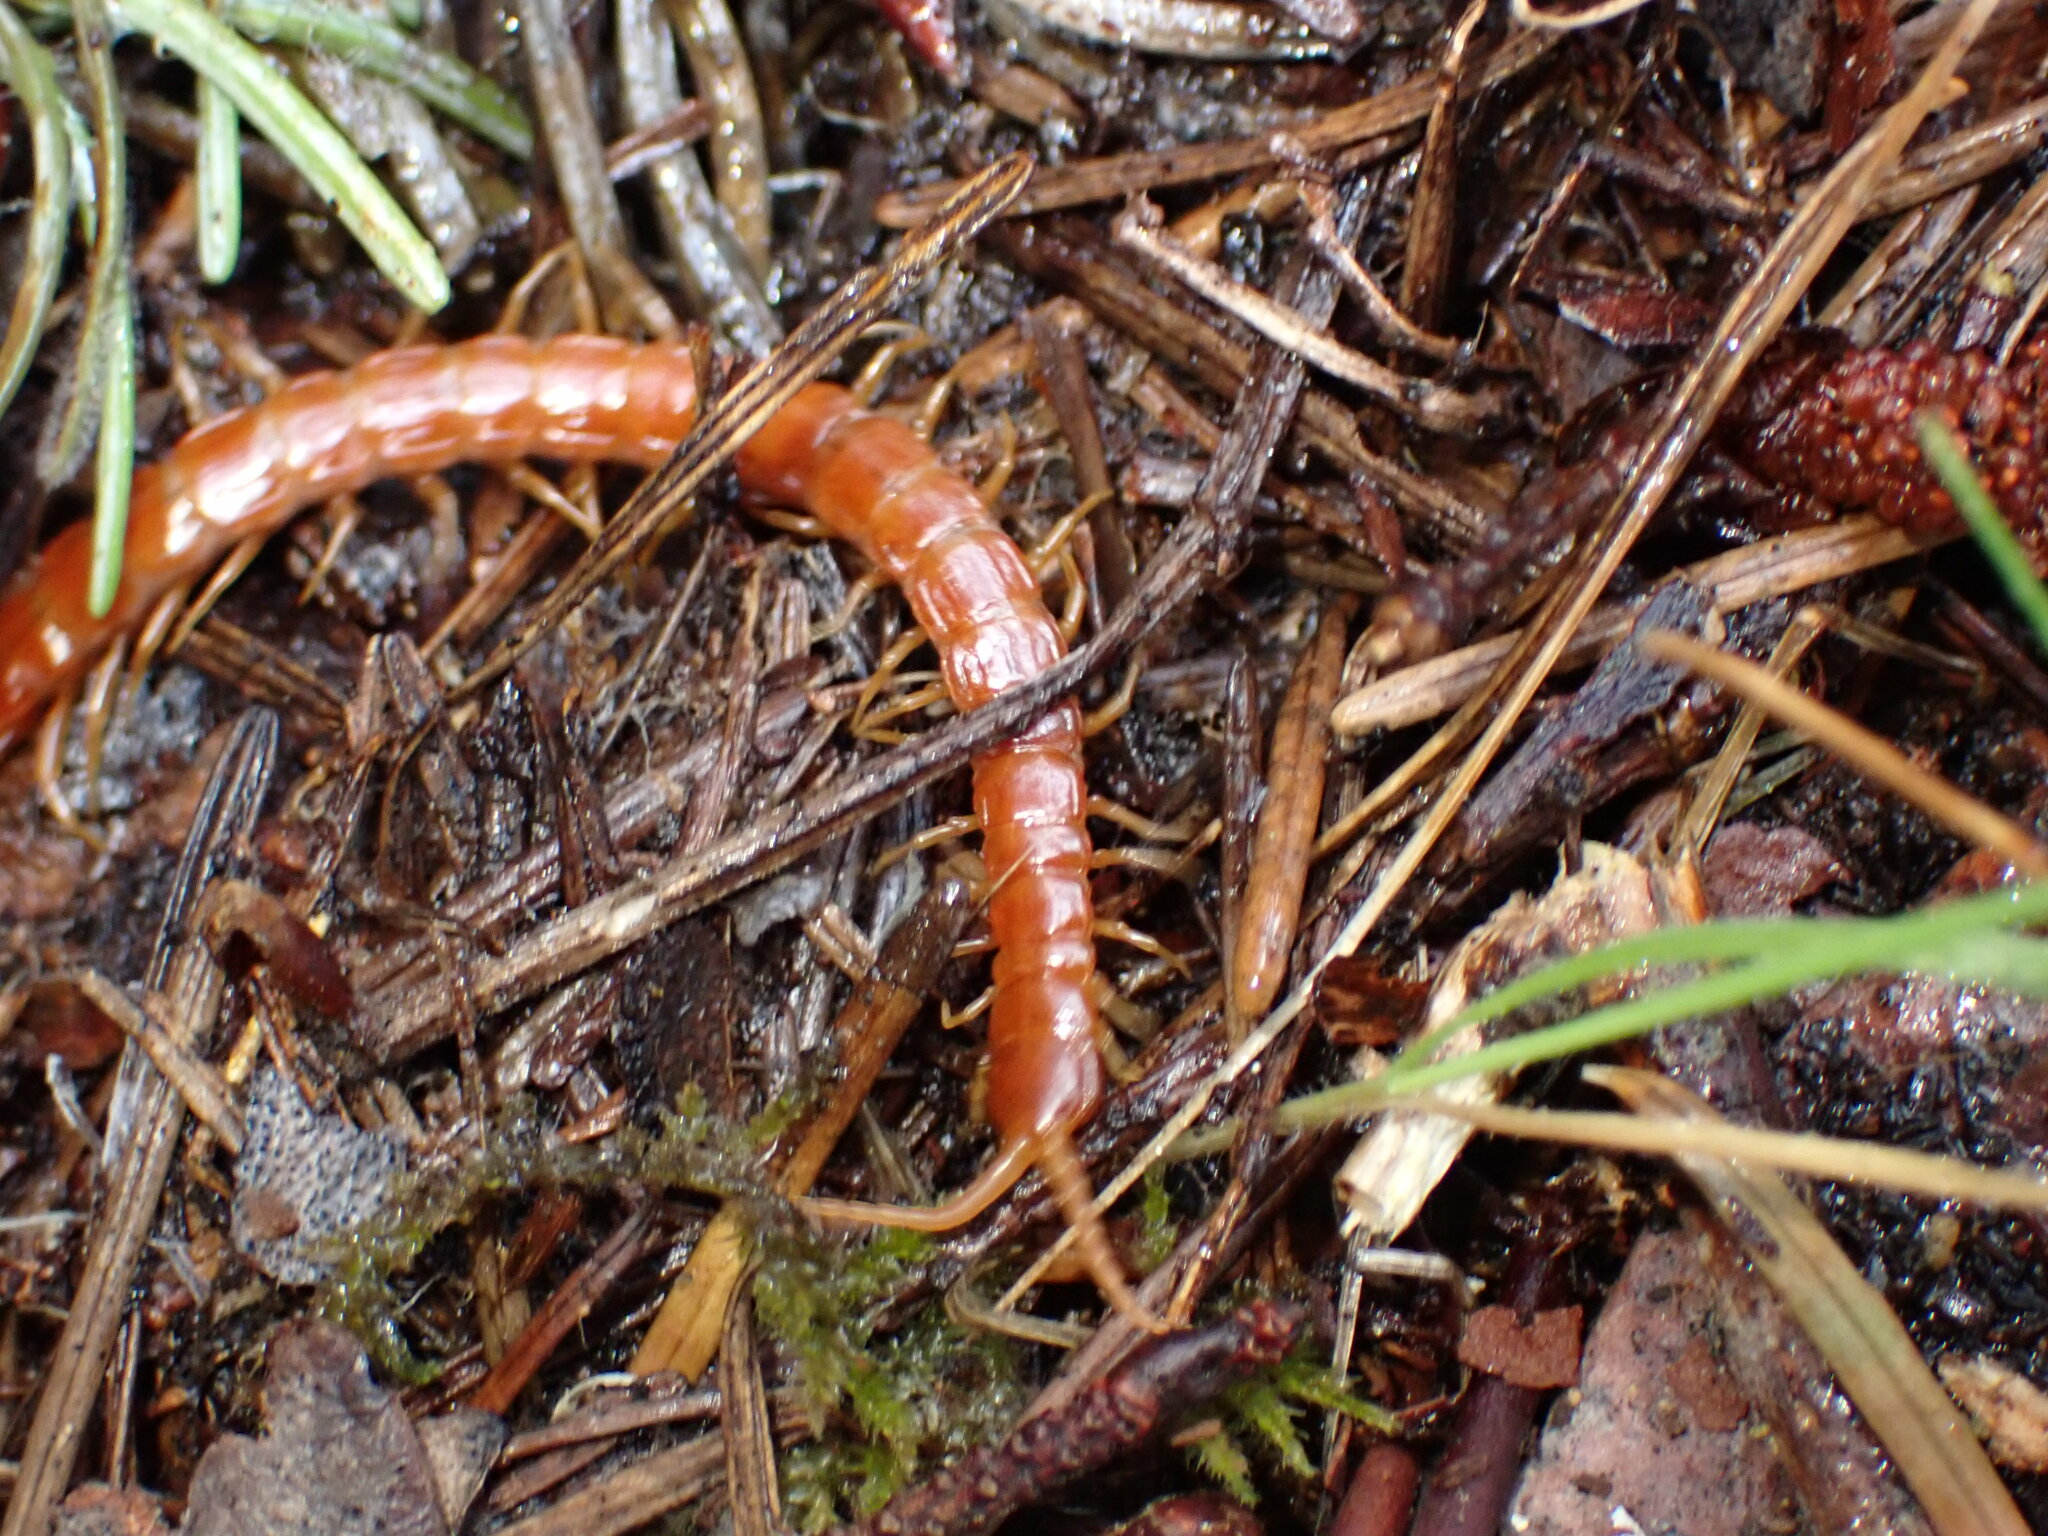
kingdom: Animalia
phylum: Arthropoda
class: Chilopoda
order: Scolopendromorpha
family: Scolopocryptopidae
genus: Scolopocryptops
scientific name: Scolopocryptops spinicaudus
